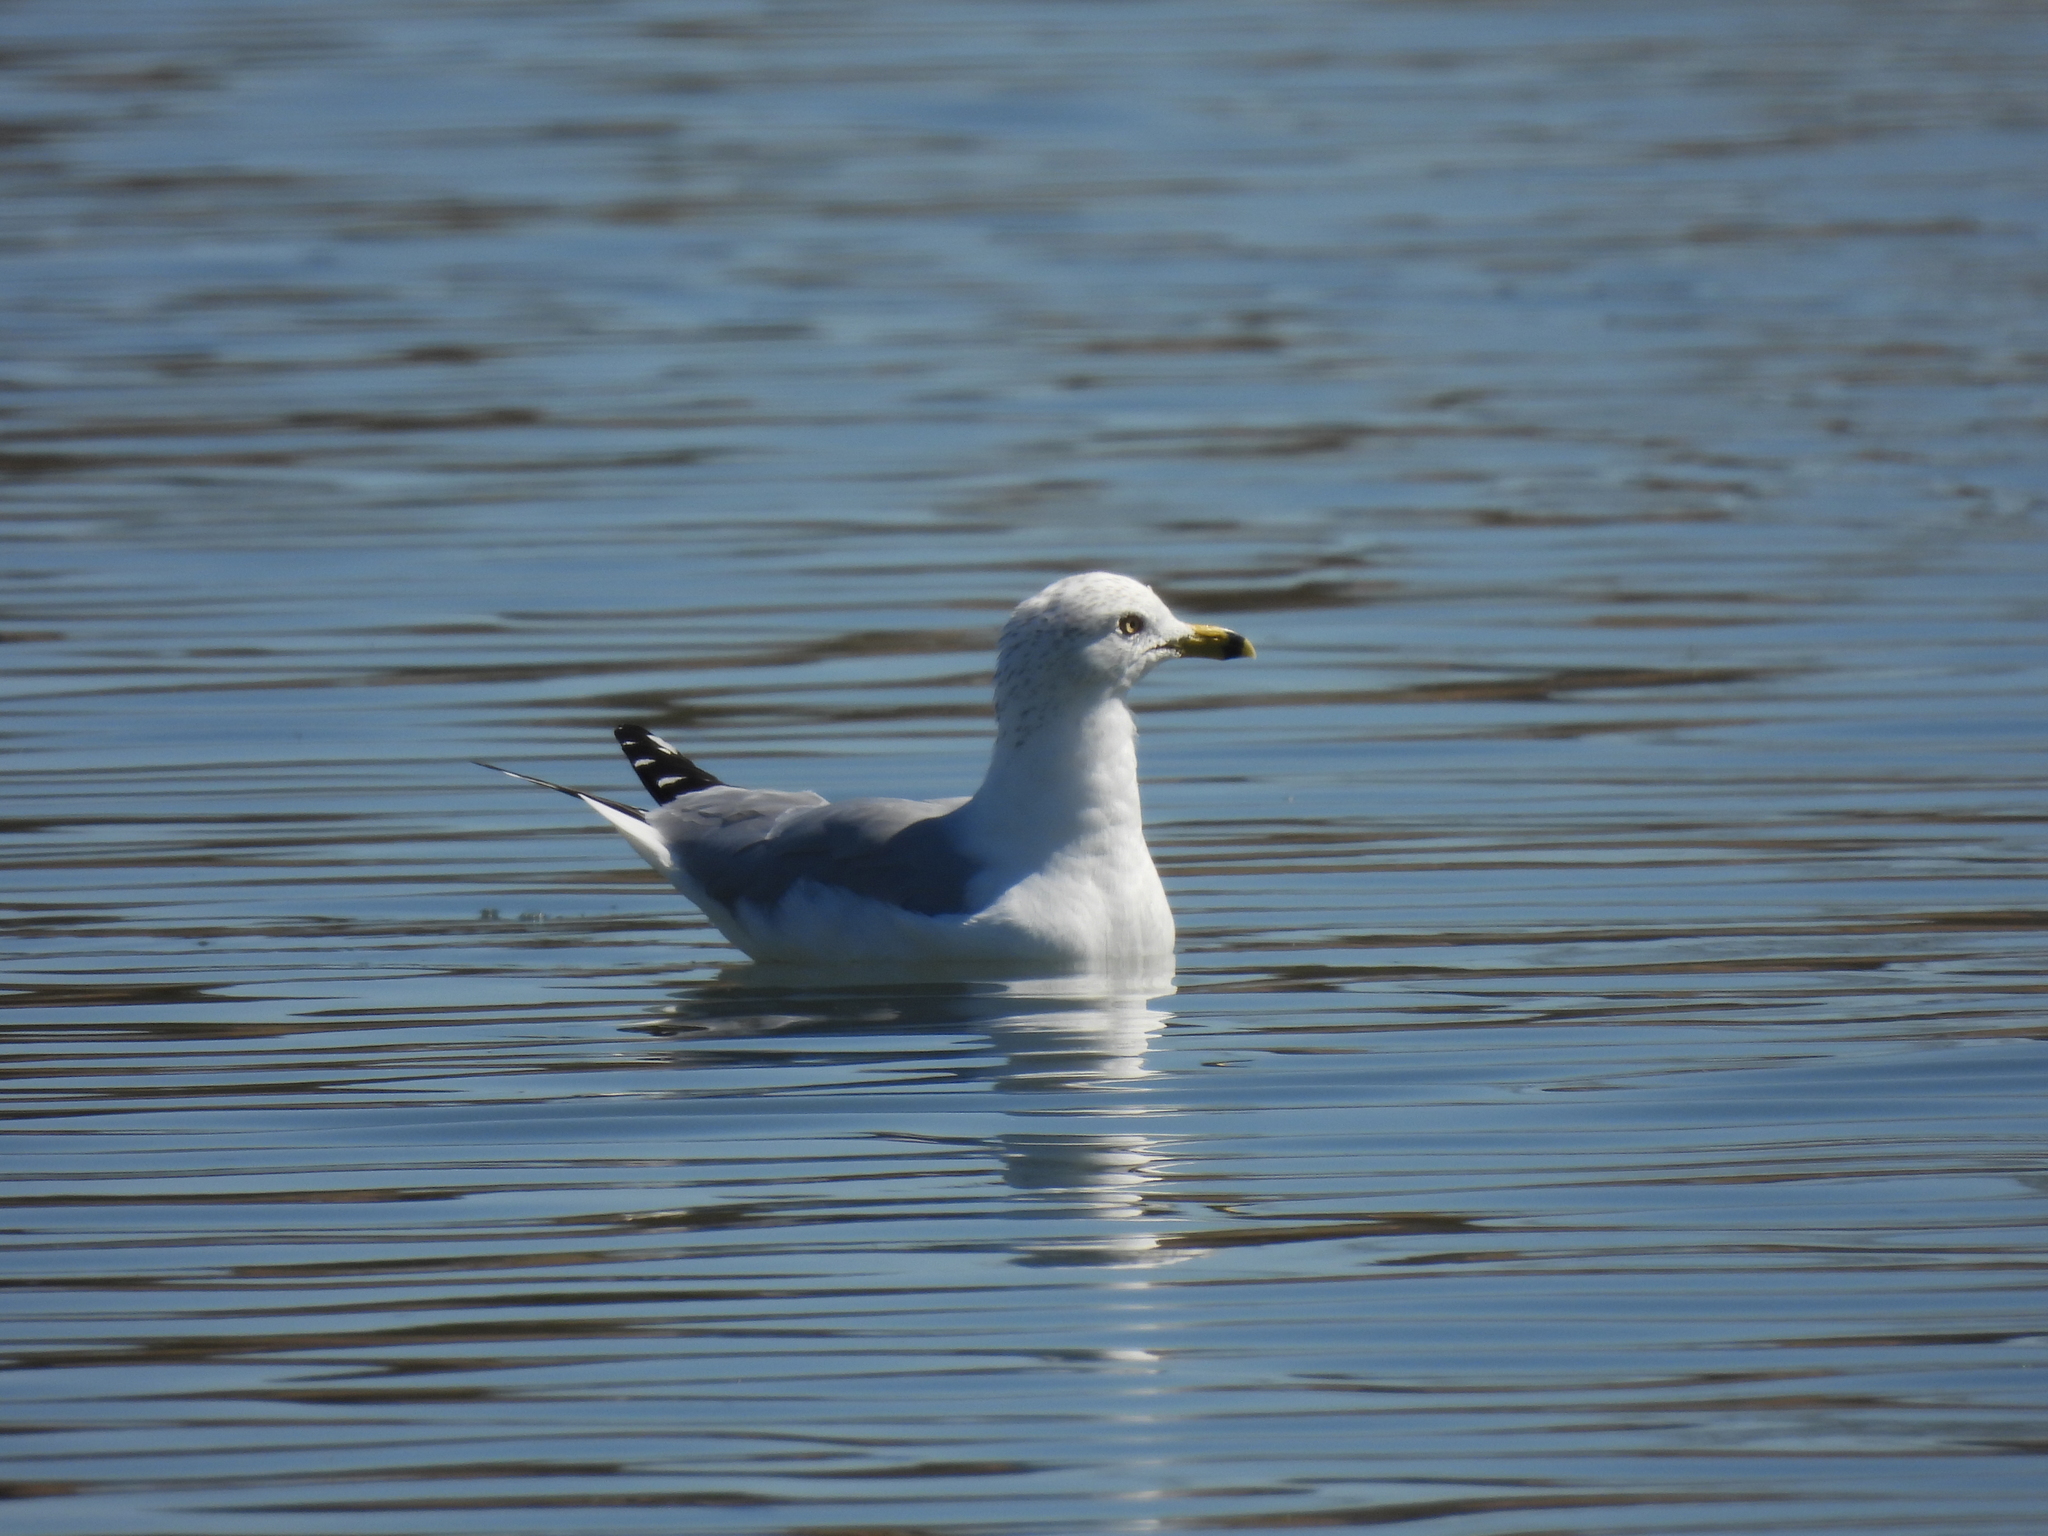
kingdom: Animalia
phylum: Chordata
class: Aves
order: Charadriiformes
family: Laridae
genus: Larus
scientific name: Larus delawarensis
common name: Ring-billed gull
